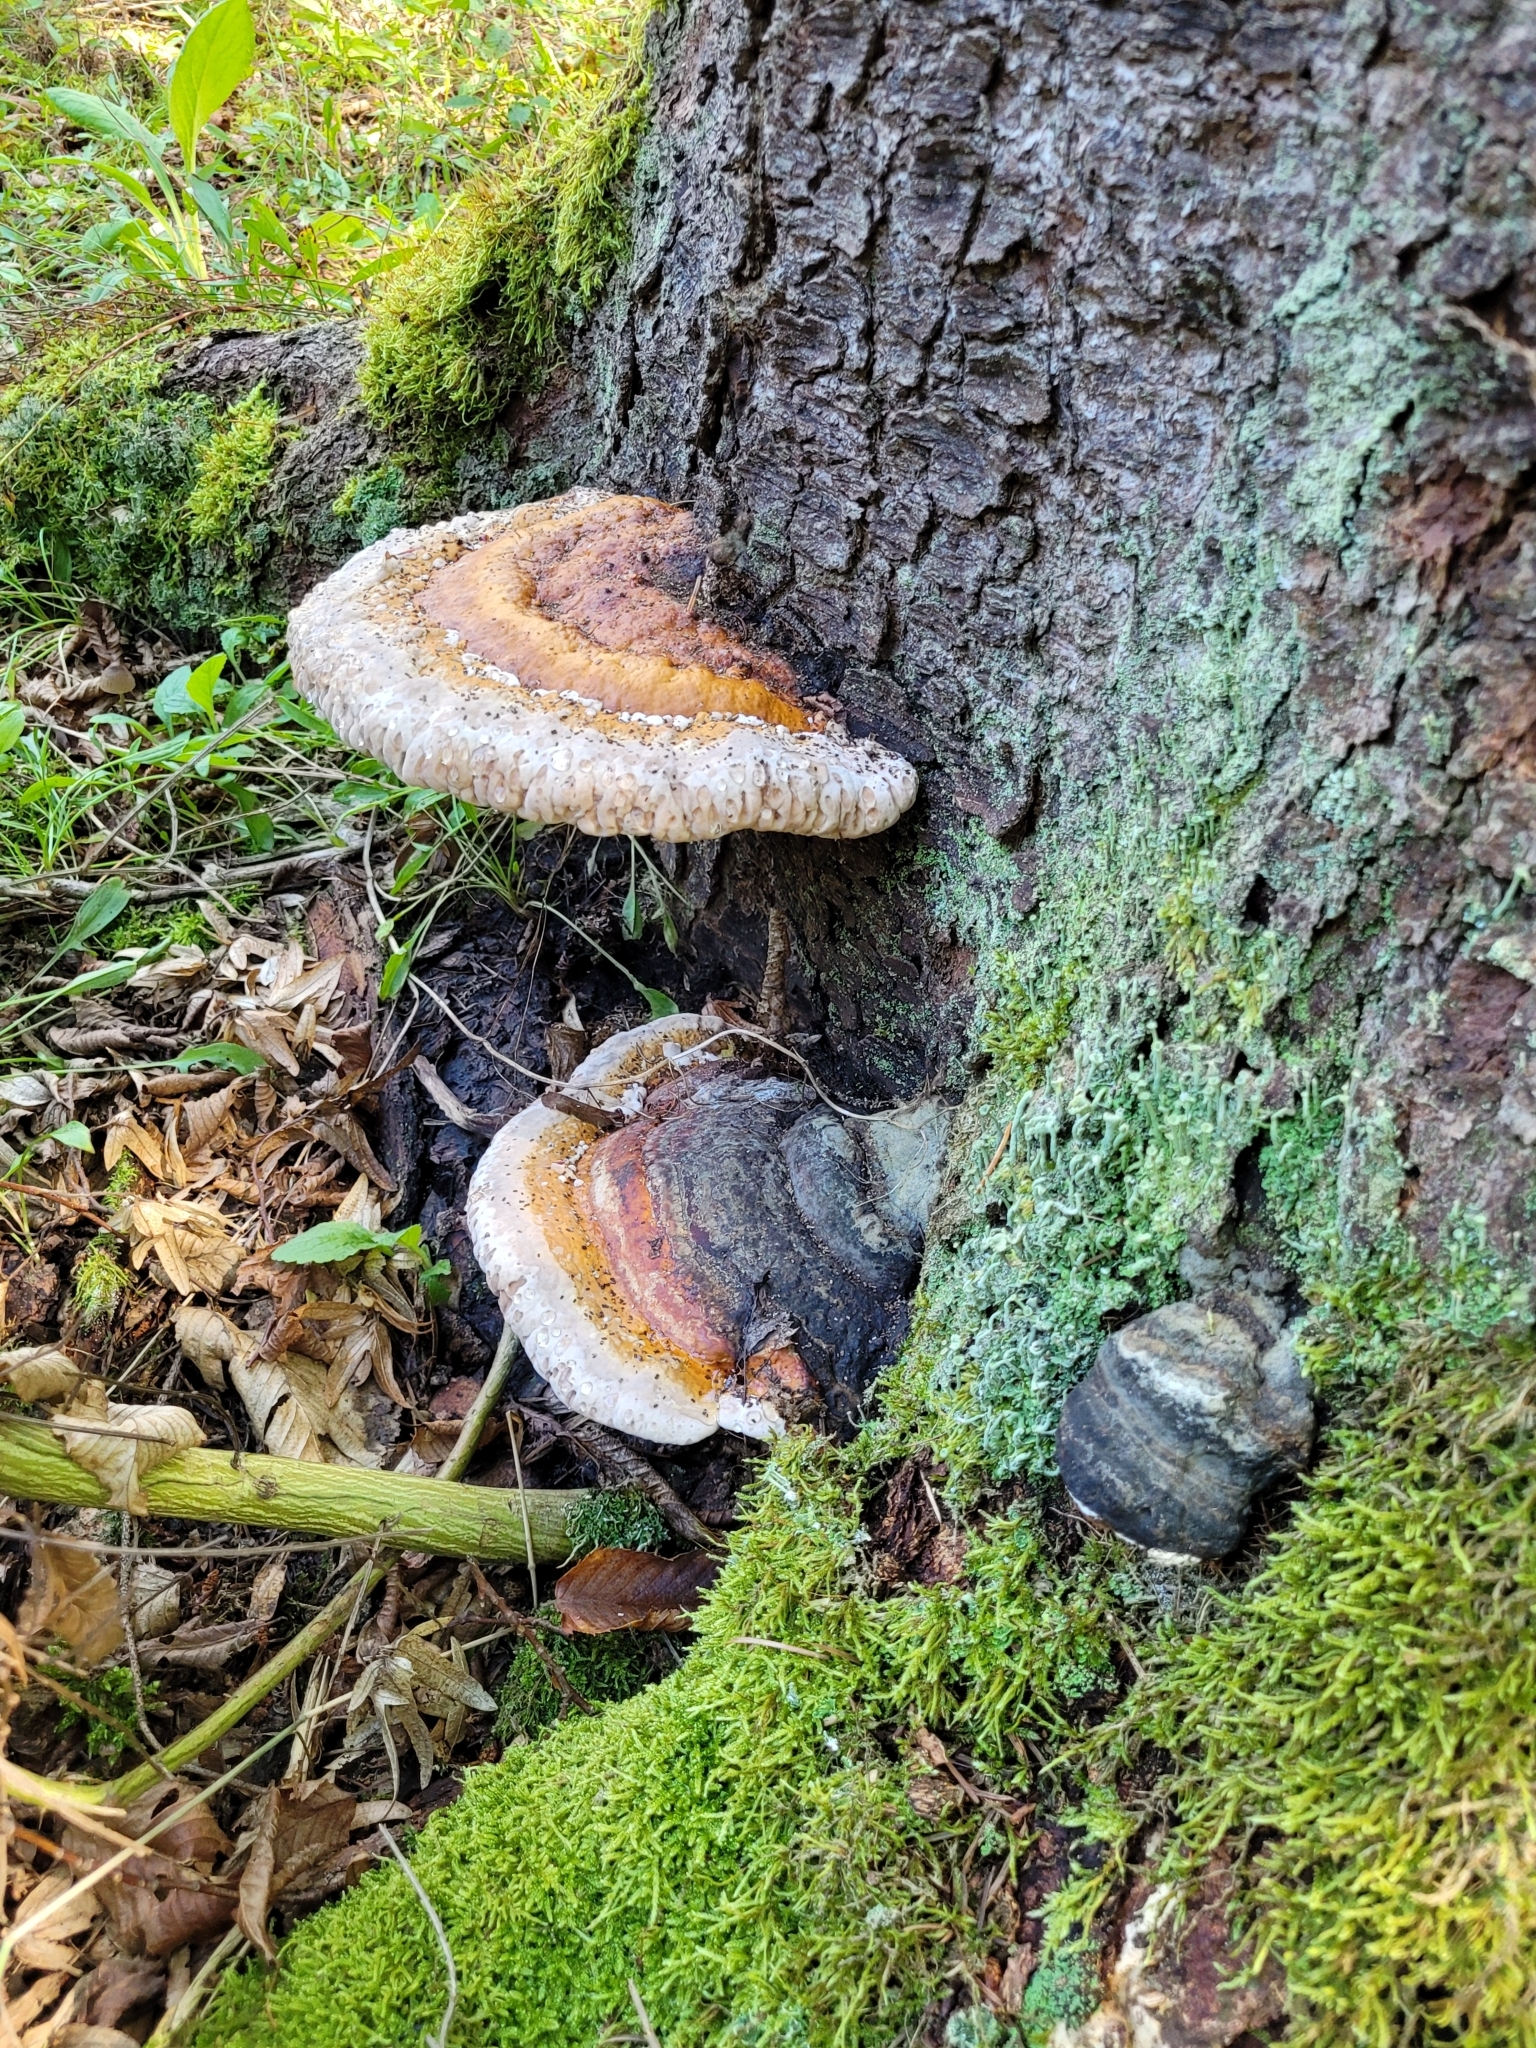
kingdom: Fungi
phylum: Basidiomycota
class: Agaricomycetes
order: Polyporales
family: Fomitopsidaceae
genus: Fomitopsis
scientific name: Fomitopsis pinicola
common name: Red-belted bracket
